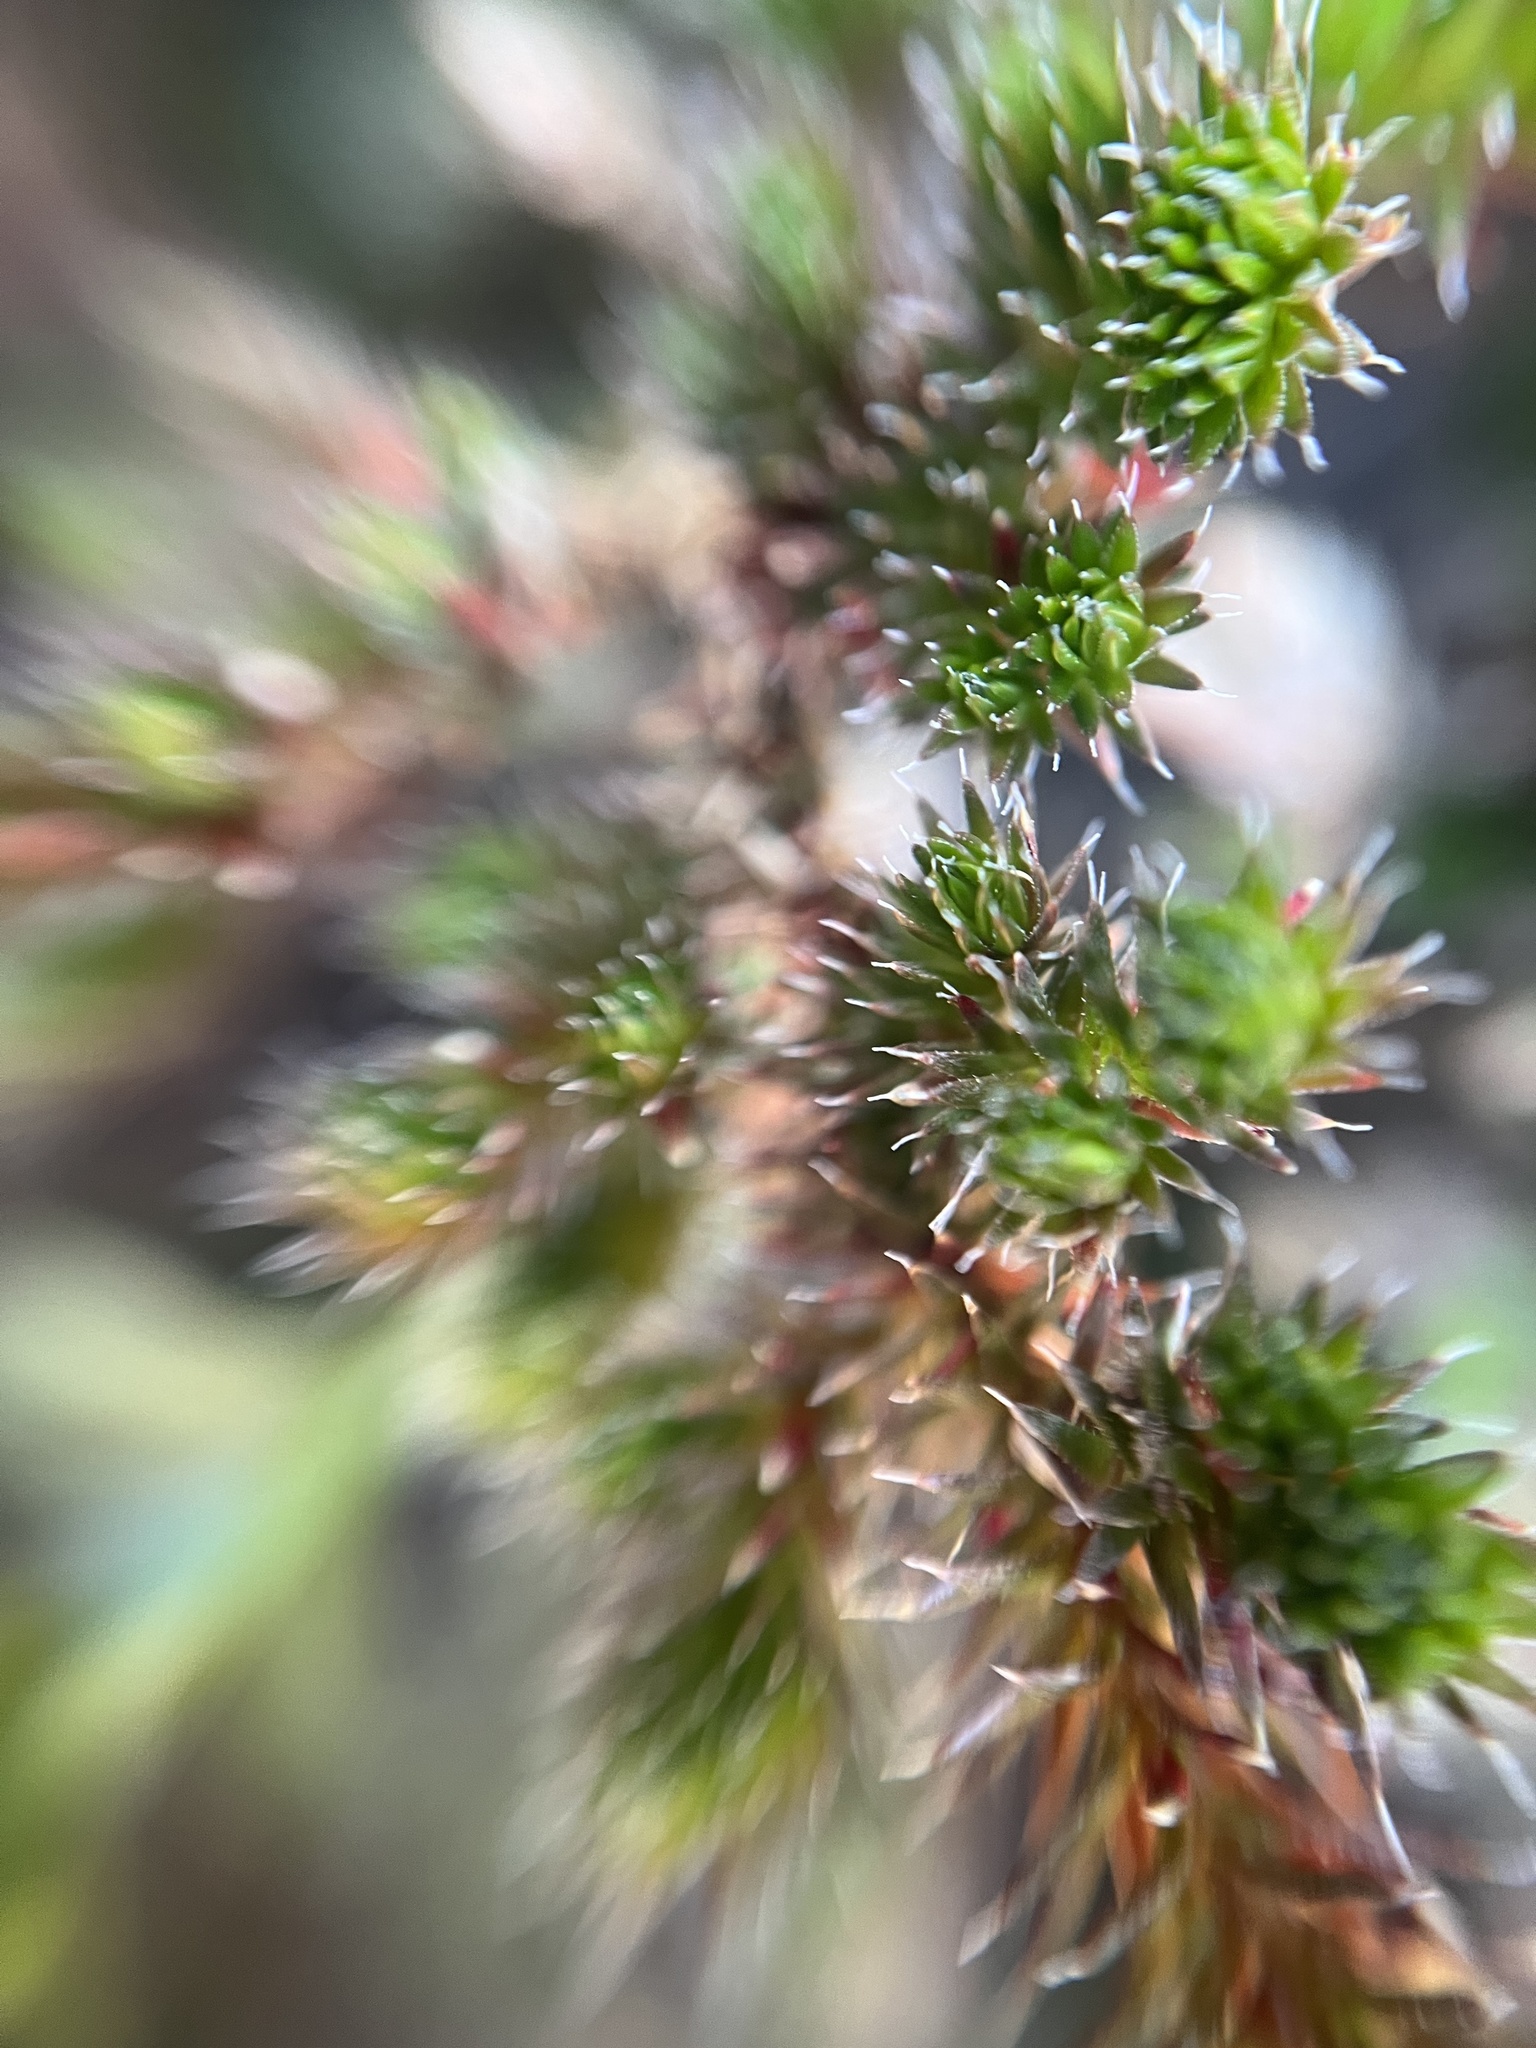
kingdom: Plantae
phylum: Tracheophyta
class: Lycopodiopsida
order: Selaginellales
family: Selaginellaceae
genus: Selaginella
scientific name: Selaginella wallacei
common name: Wallace's selaginella
